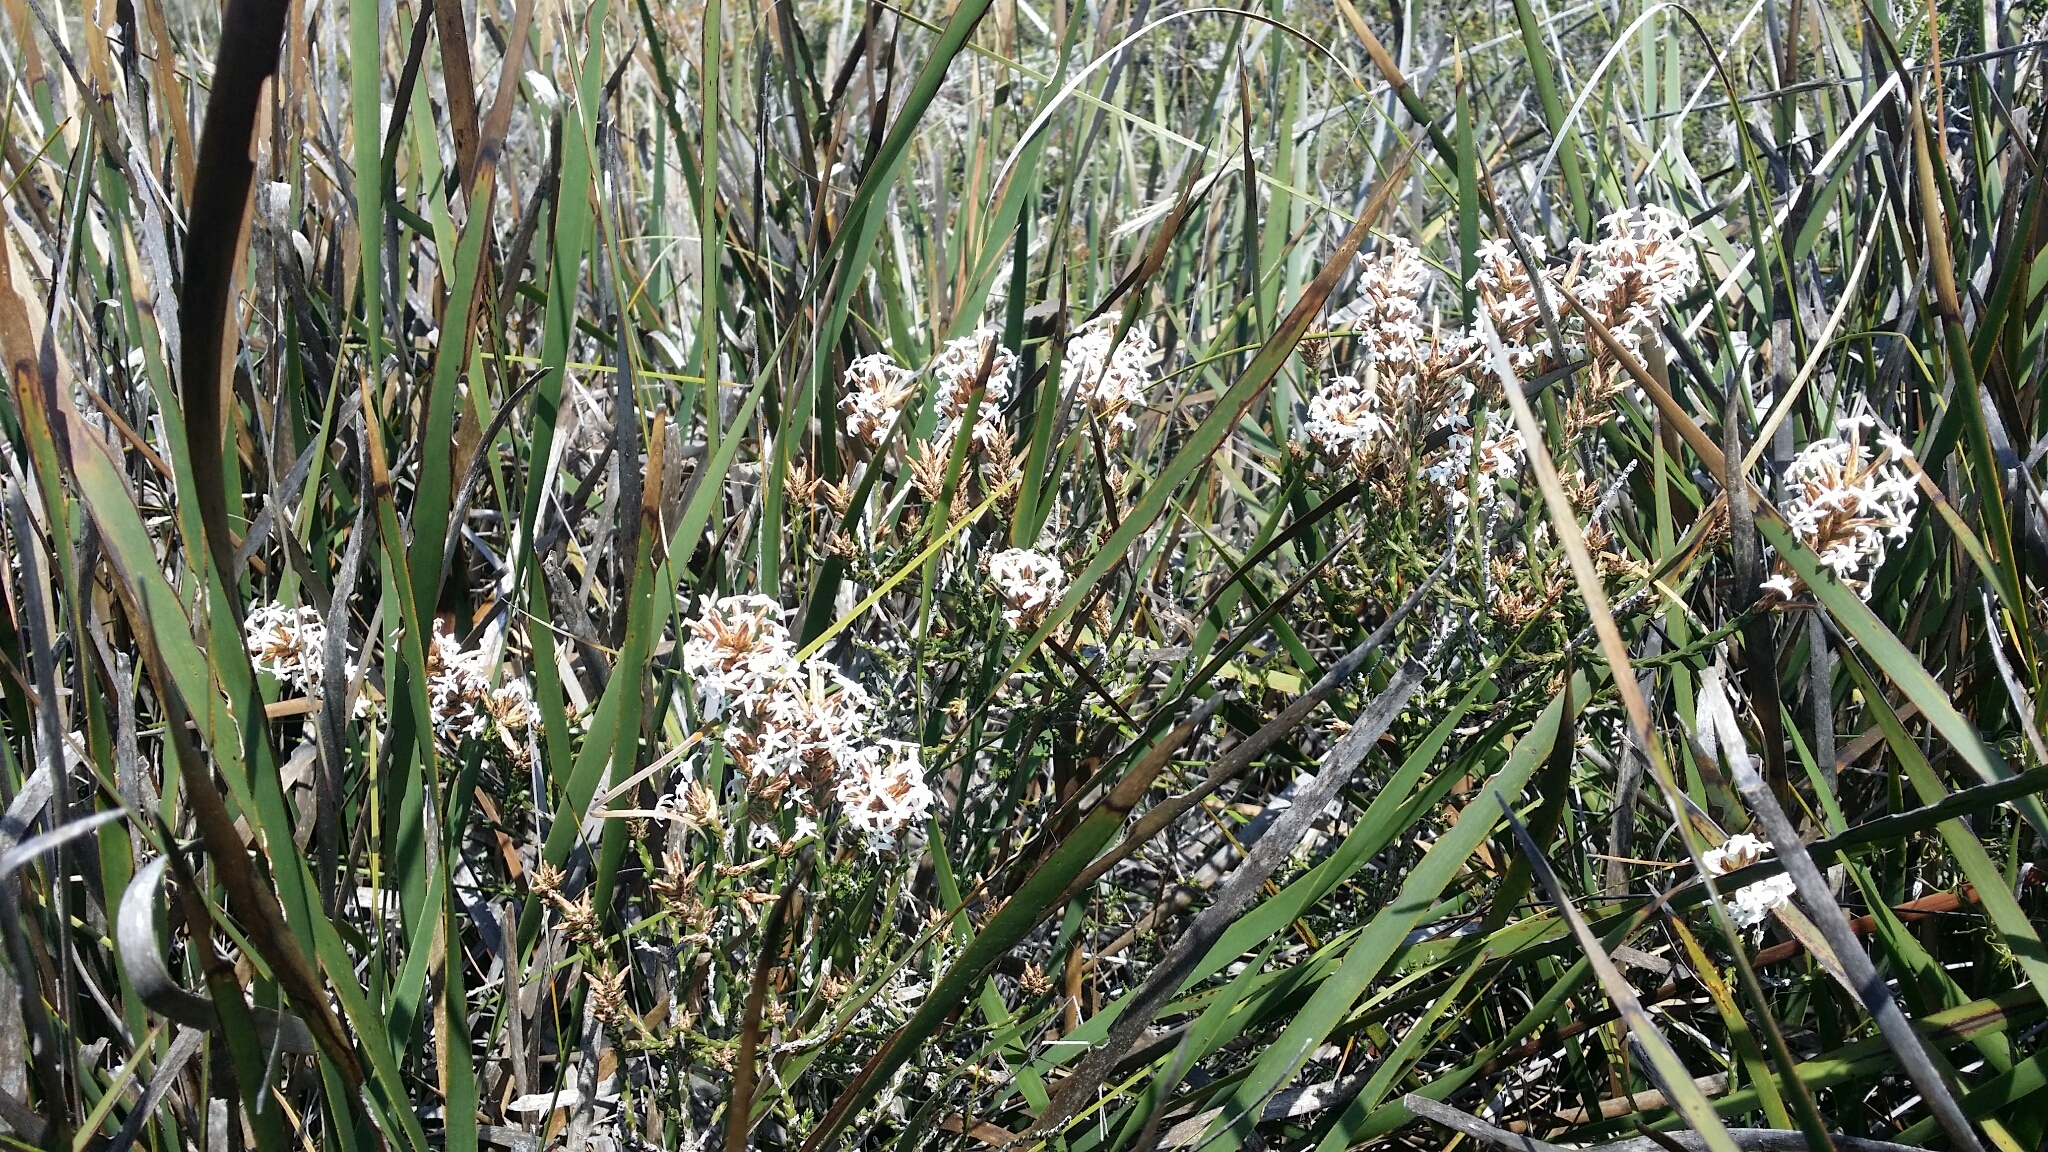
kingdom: Plantae
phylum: Tracheophyta
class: Magnoliopsida
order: Ericales
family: Ericaceae
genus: Lysinema
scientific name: Lysinema pentapetalum
